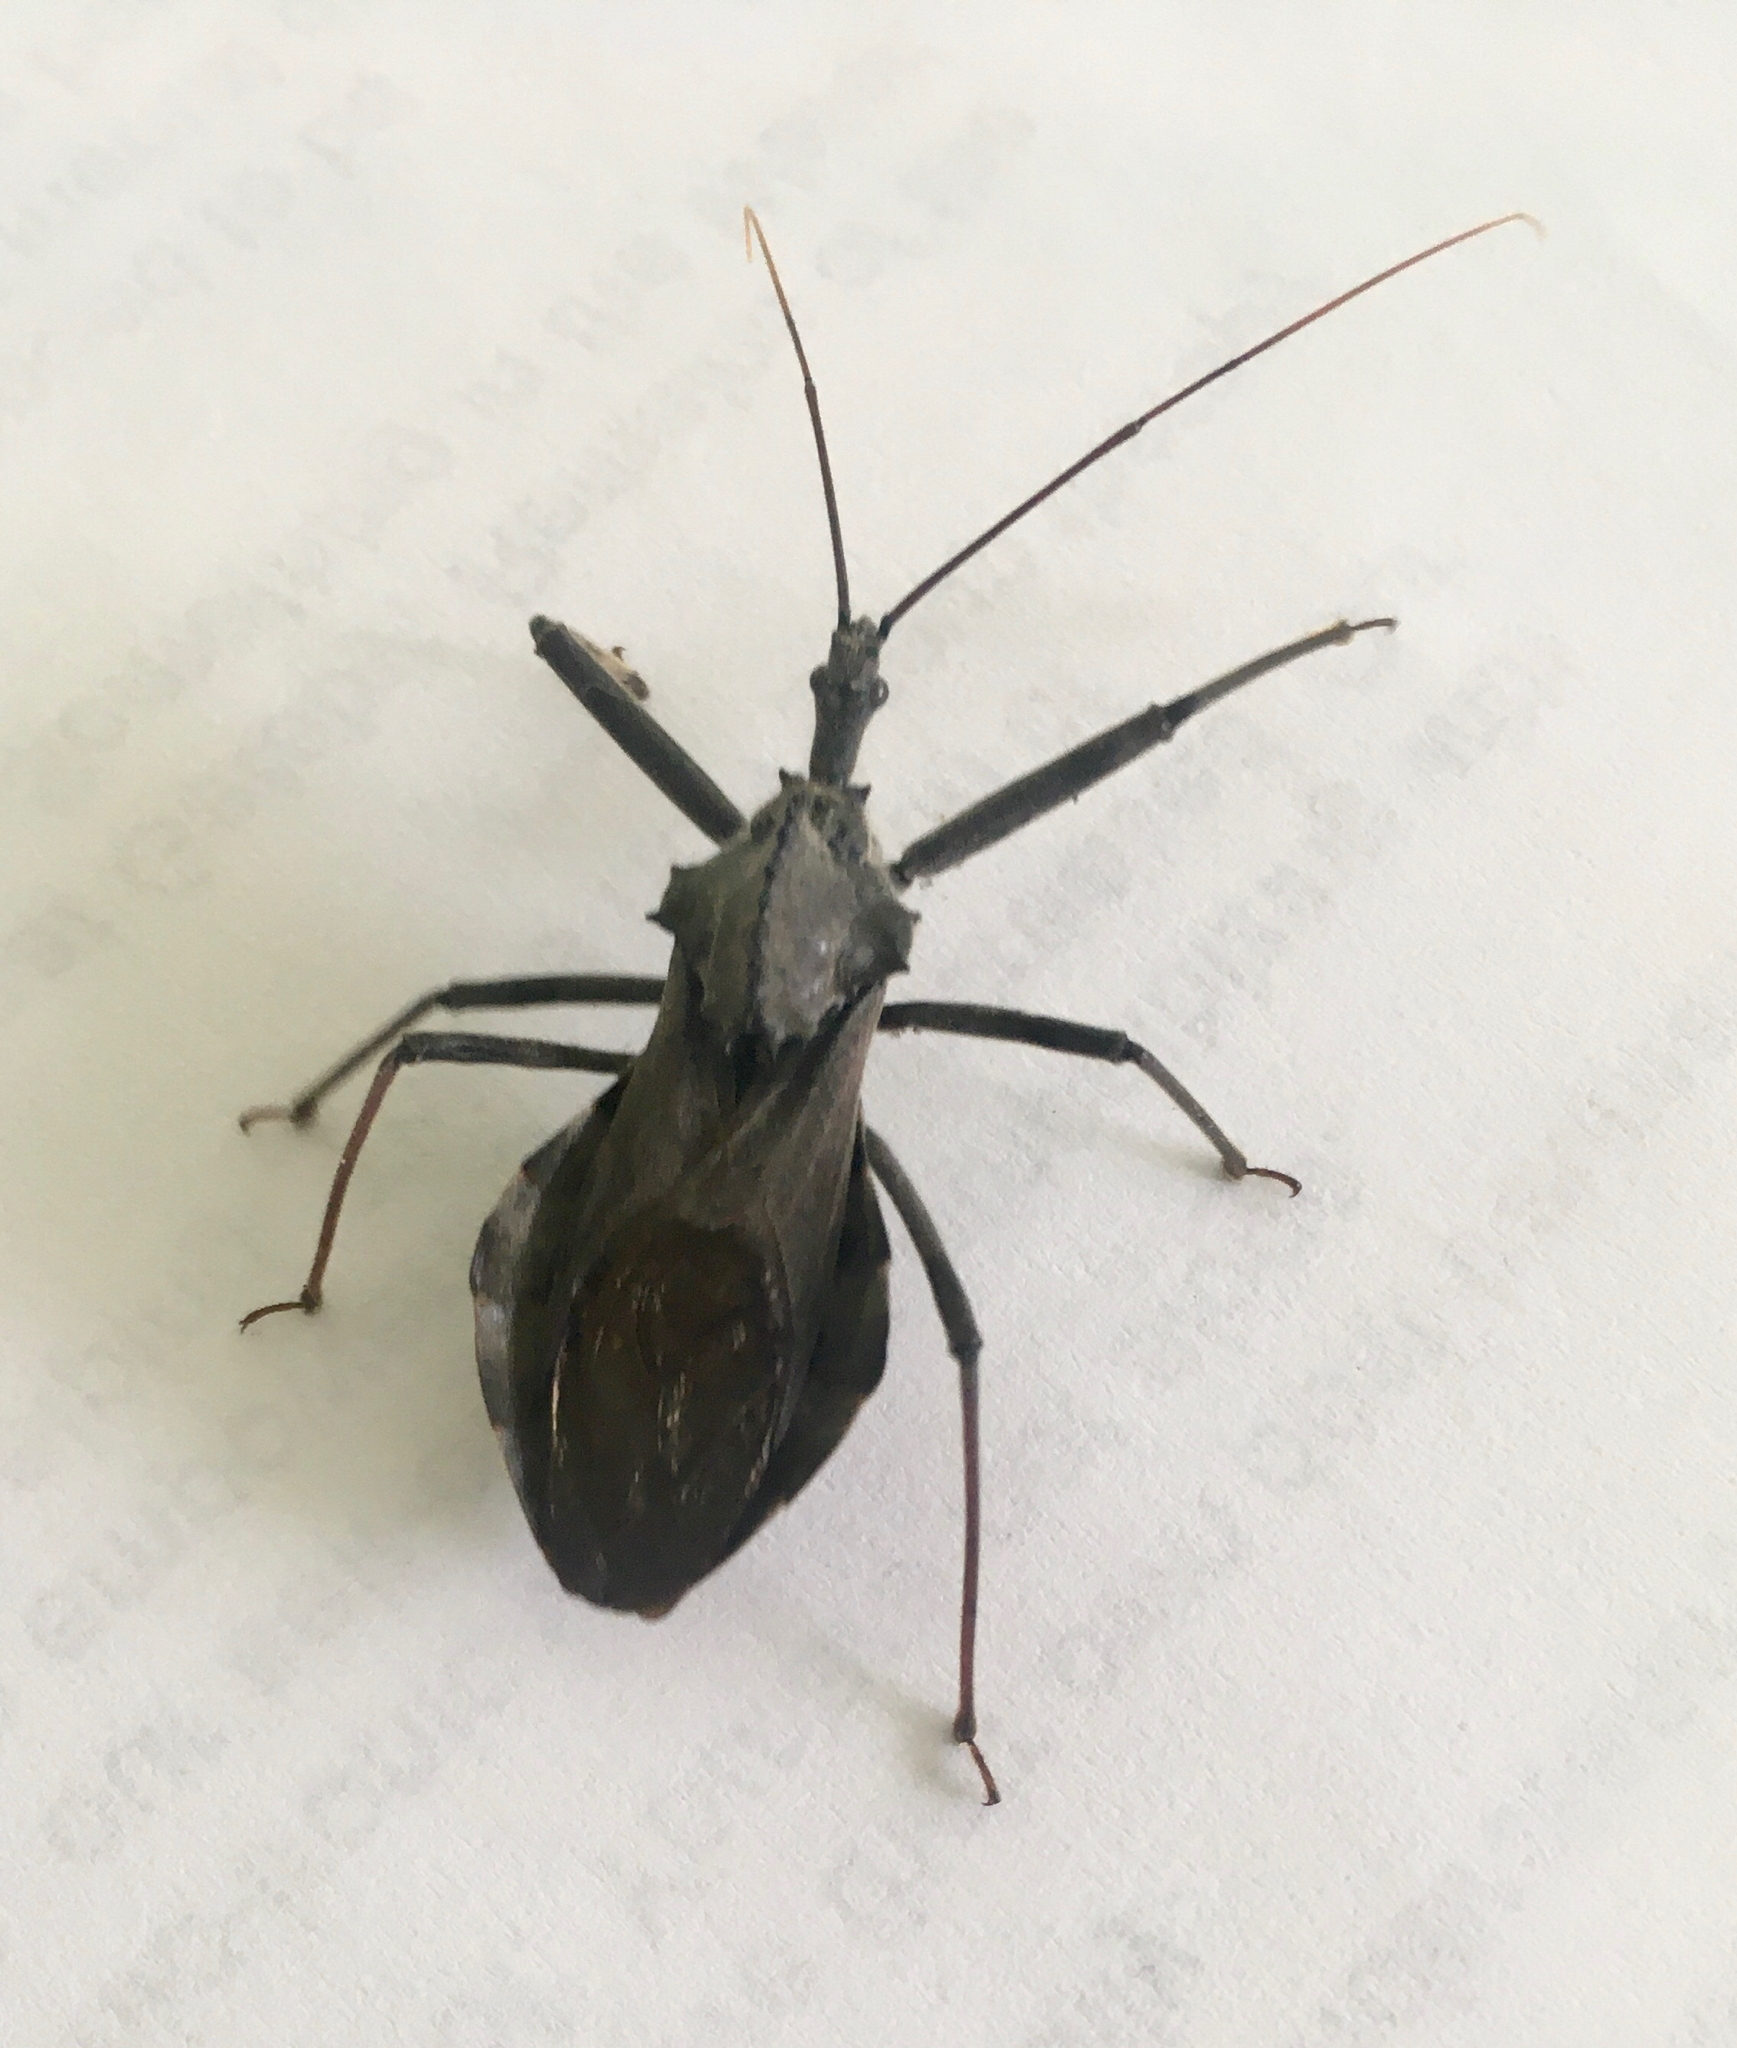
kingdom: Animalia
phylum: Arthropoda
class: Insecta
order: Hemiptera
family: Reduviidae
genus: Arilus
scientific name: Arilus cristatus
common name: North american wheel bug
